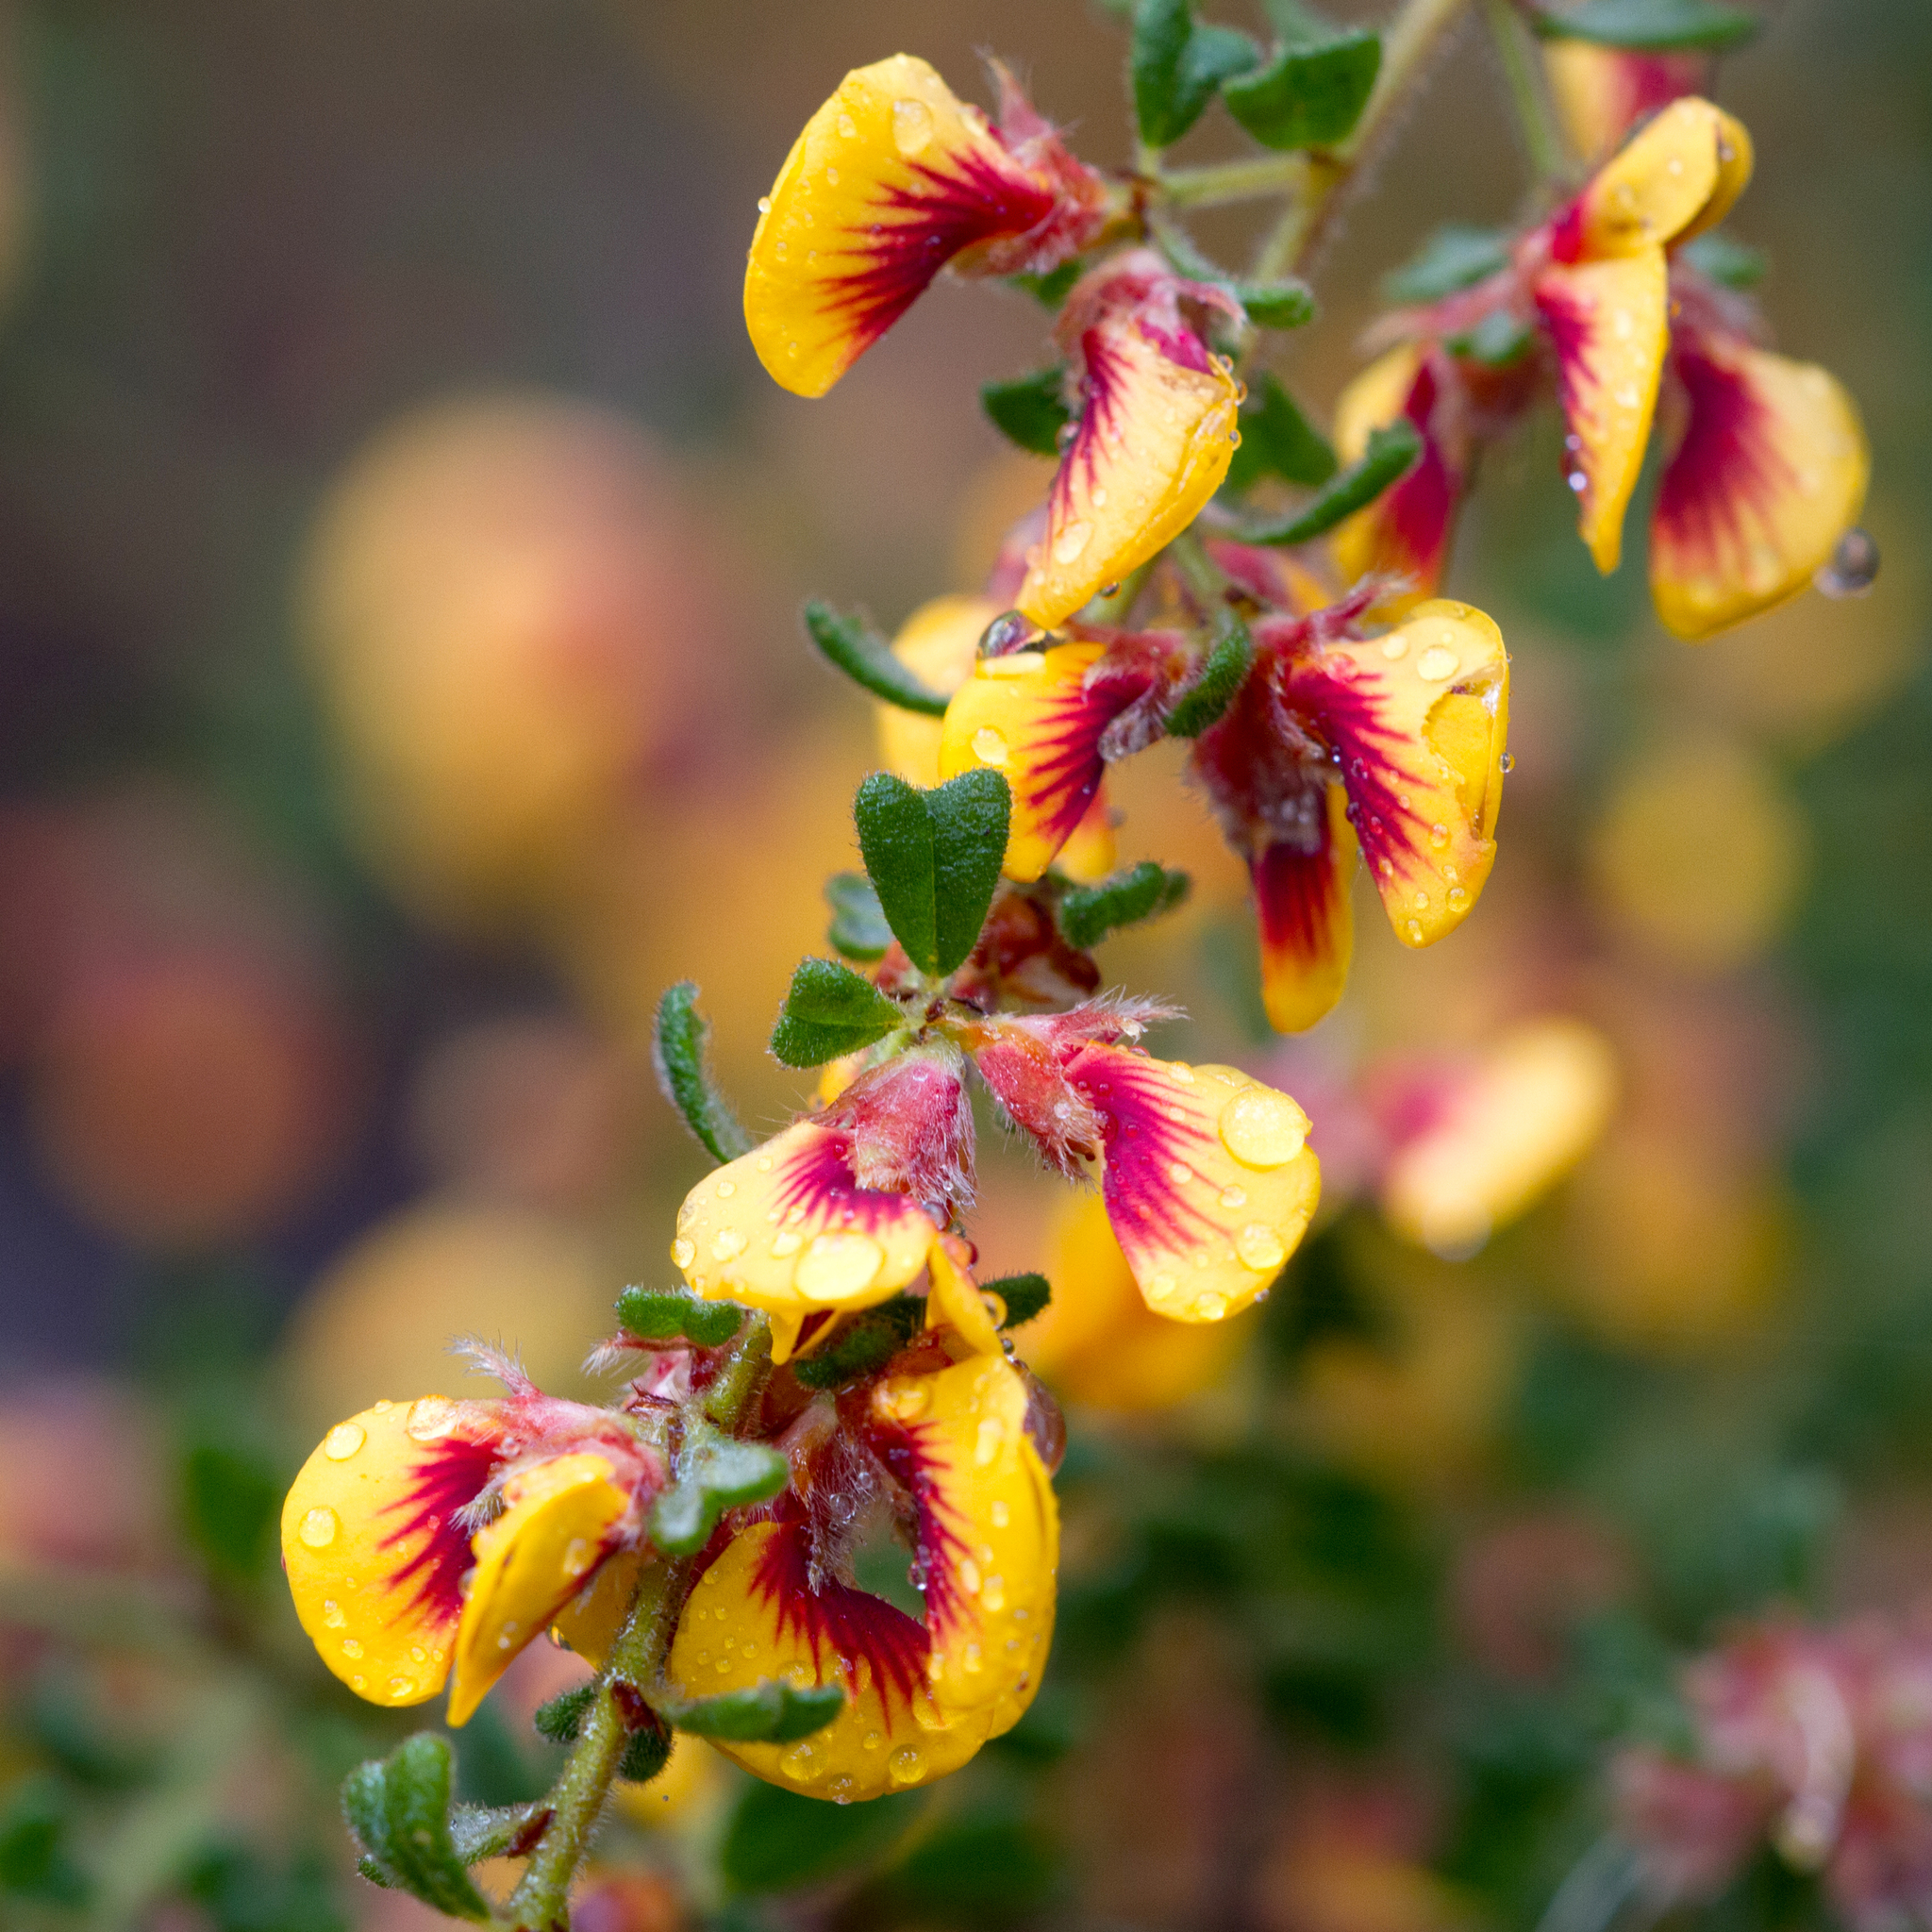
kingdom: Plantae
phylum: Tracheophyta
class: Magnoliopsida
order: Fabales
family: Fabaceae
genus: Pultenaea
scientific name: Pultenaea scabra
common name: Rough bush-pea
